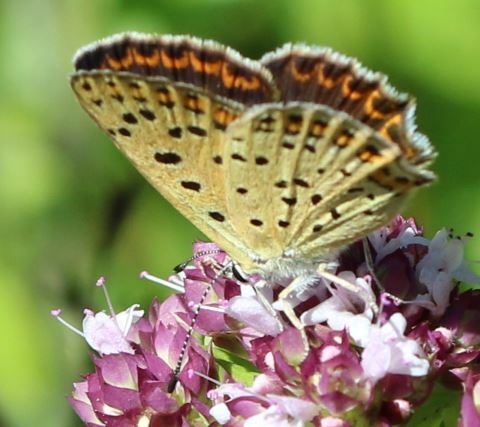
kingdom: Animalia
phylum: Arthropoda
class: Insecta
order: Lepidoptera
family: Lycaenidae
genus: Loweia
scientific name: Loweia tityrus
